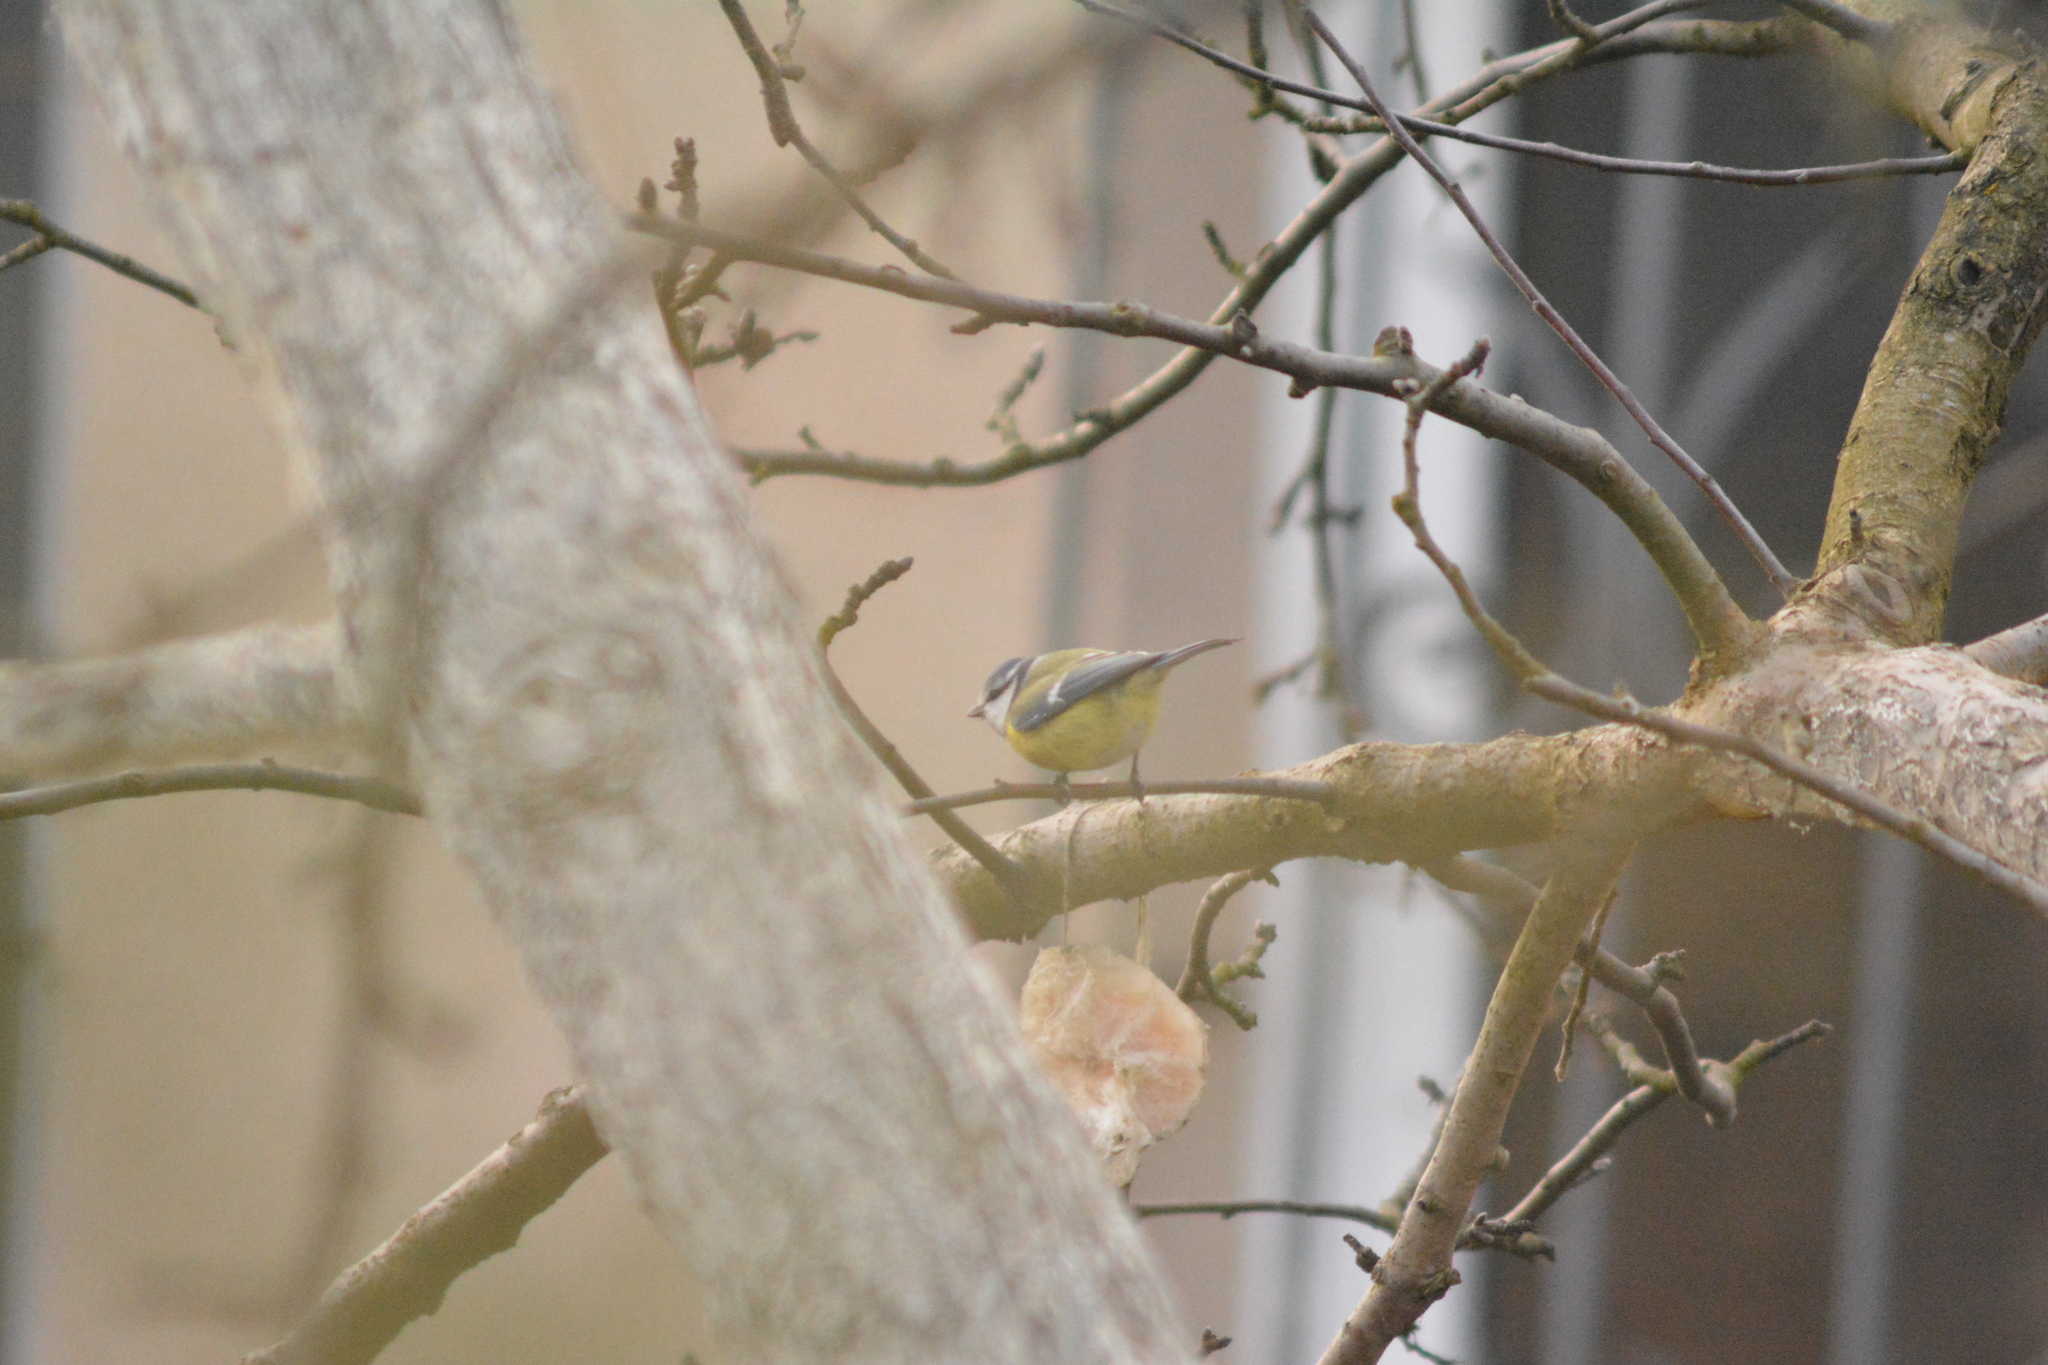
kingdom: Animalia
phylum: Chordata
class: Aves
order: Passeriformes
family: Paridae
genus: Cyanistes
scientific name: Cyanistes caeruleus
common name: Eurasian blue tit
